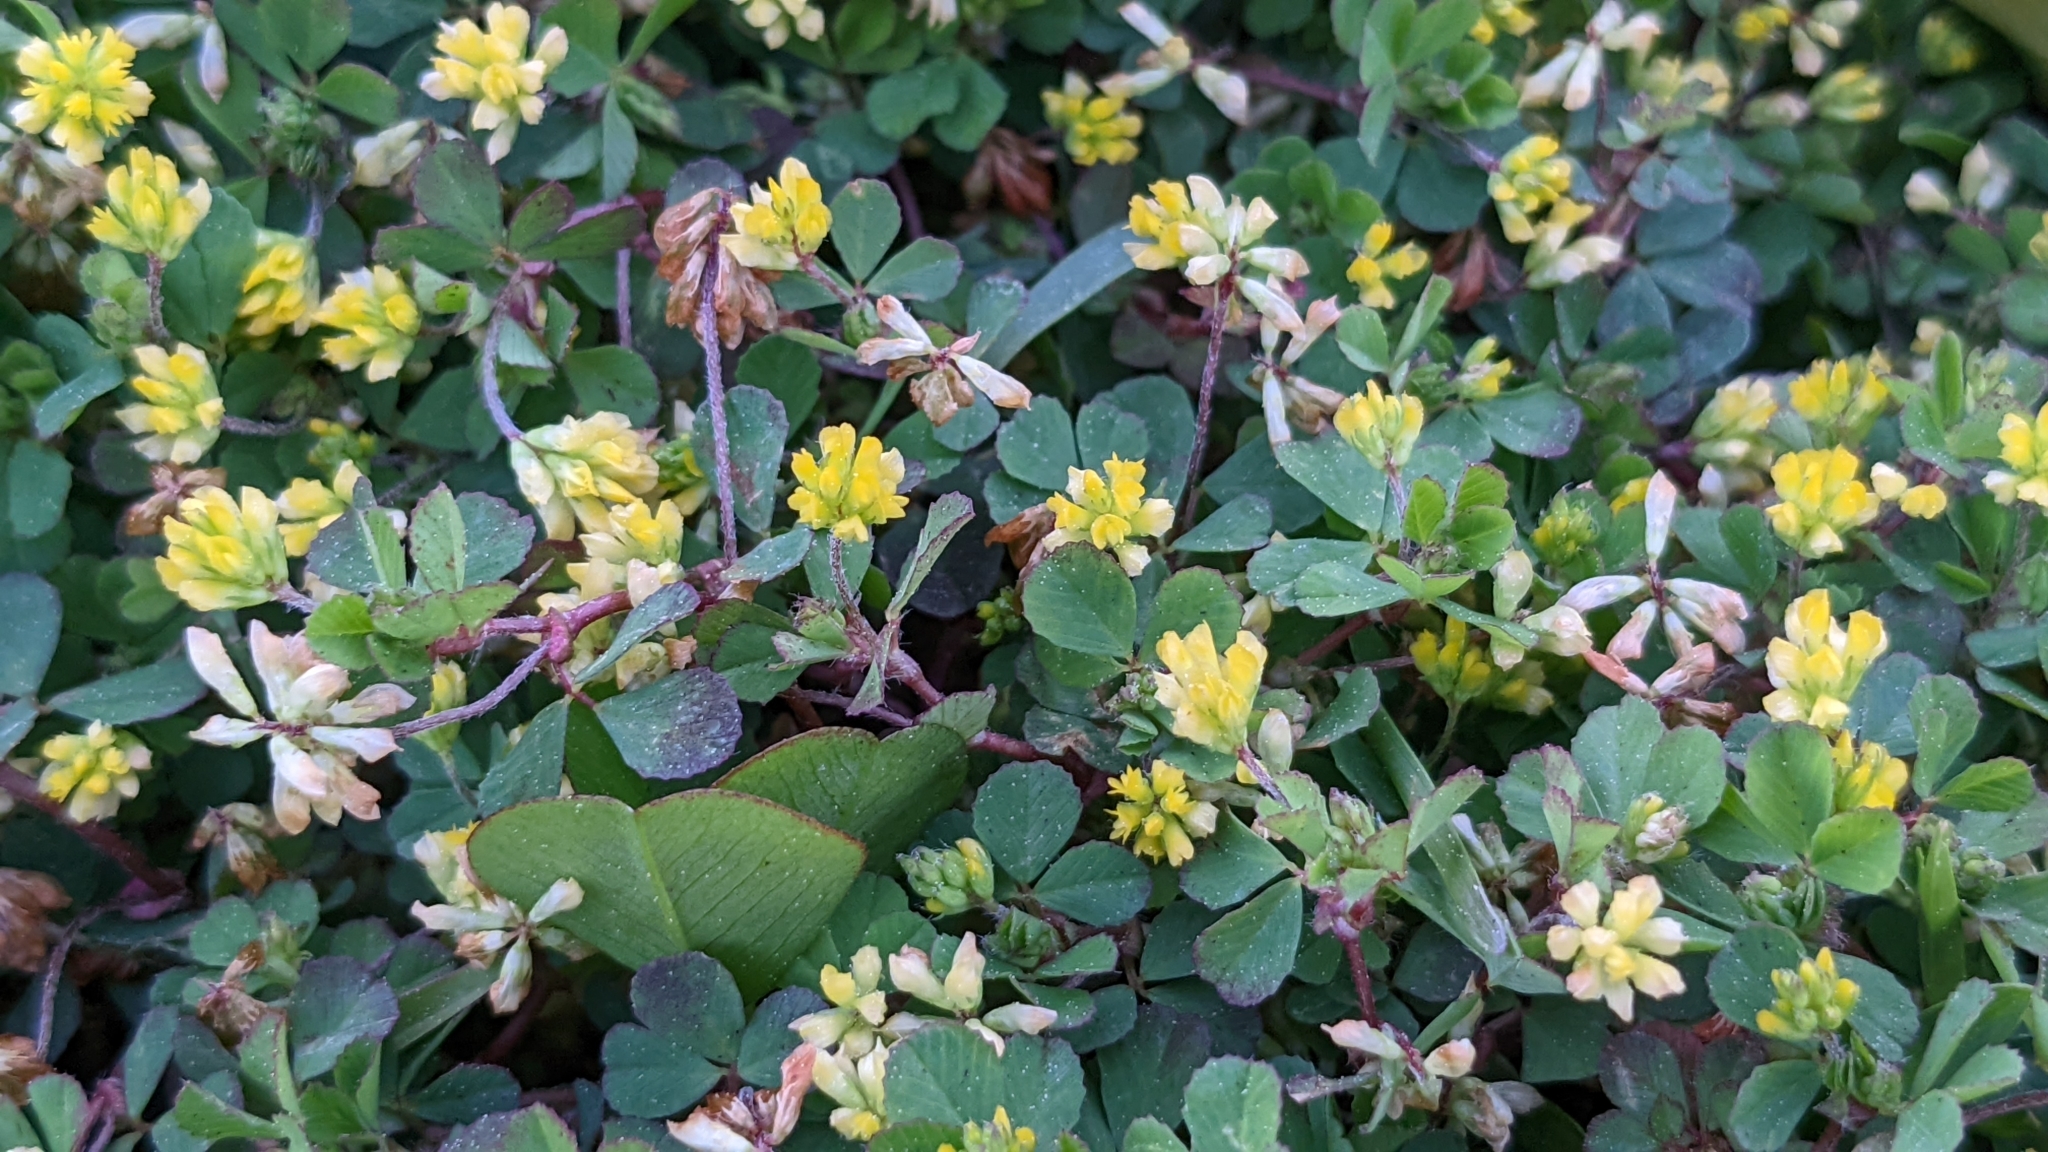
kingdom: Plantae
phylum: Tracheophyta
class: Magnoliopsida
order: Fabales
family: Fabaceae
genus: Trifolium
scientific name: Trifolium dubium
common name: Suckling clover
